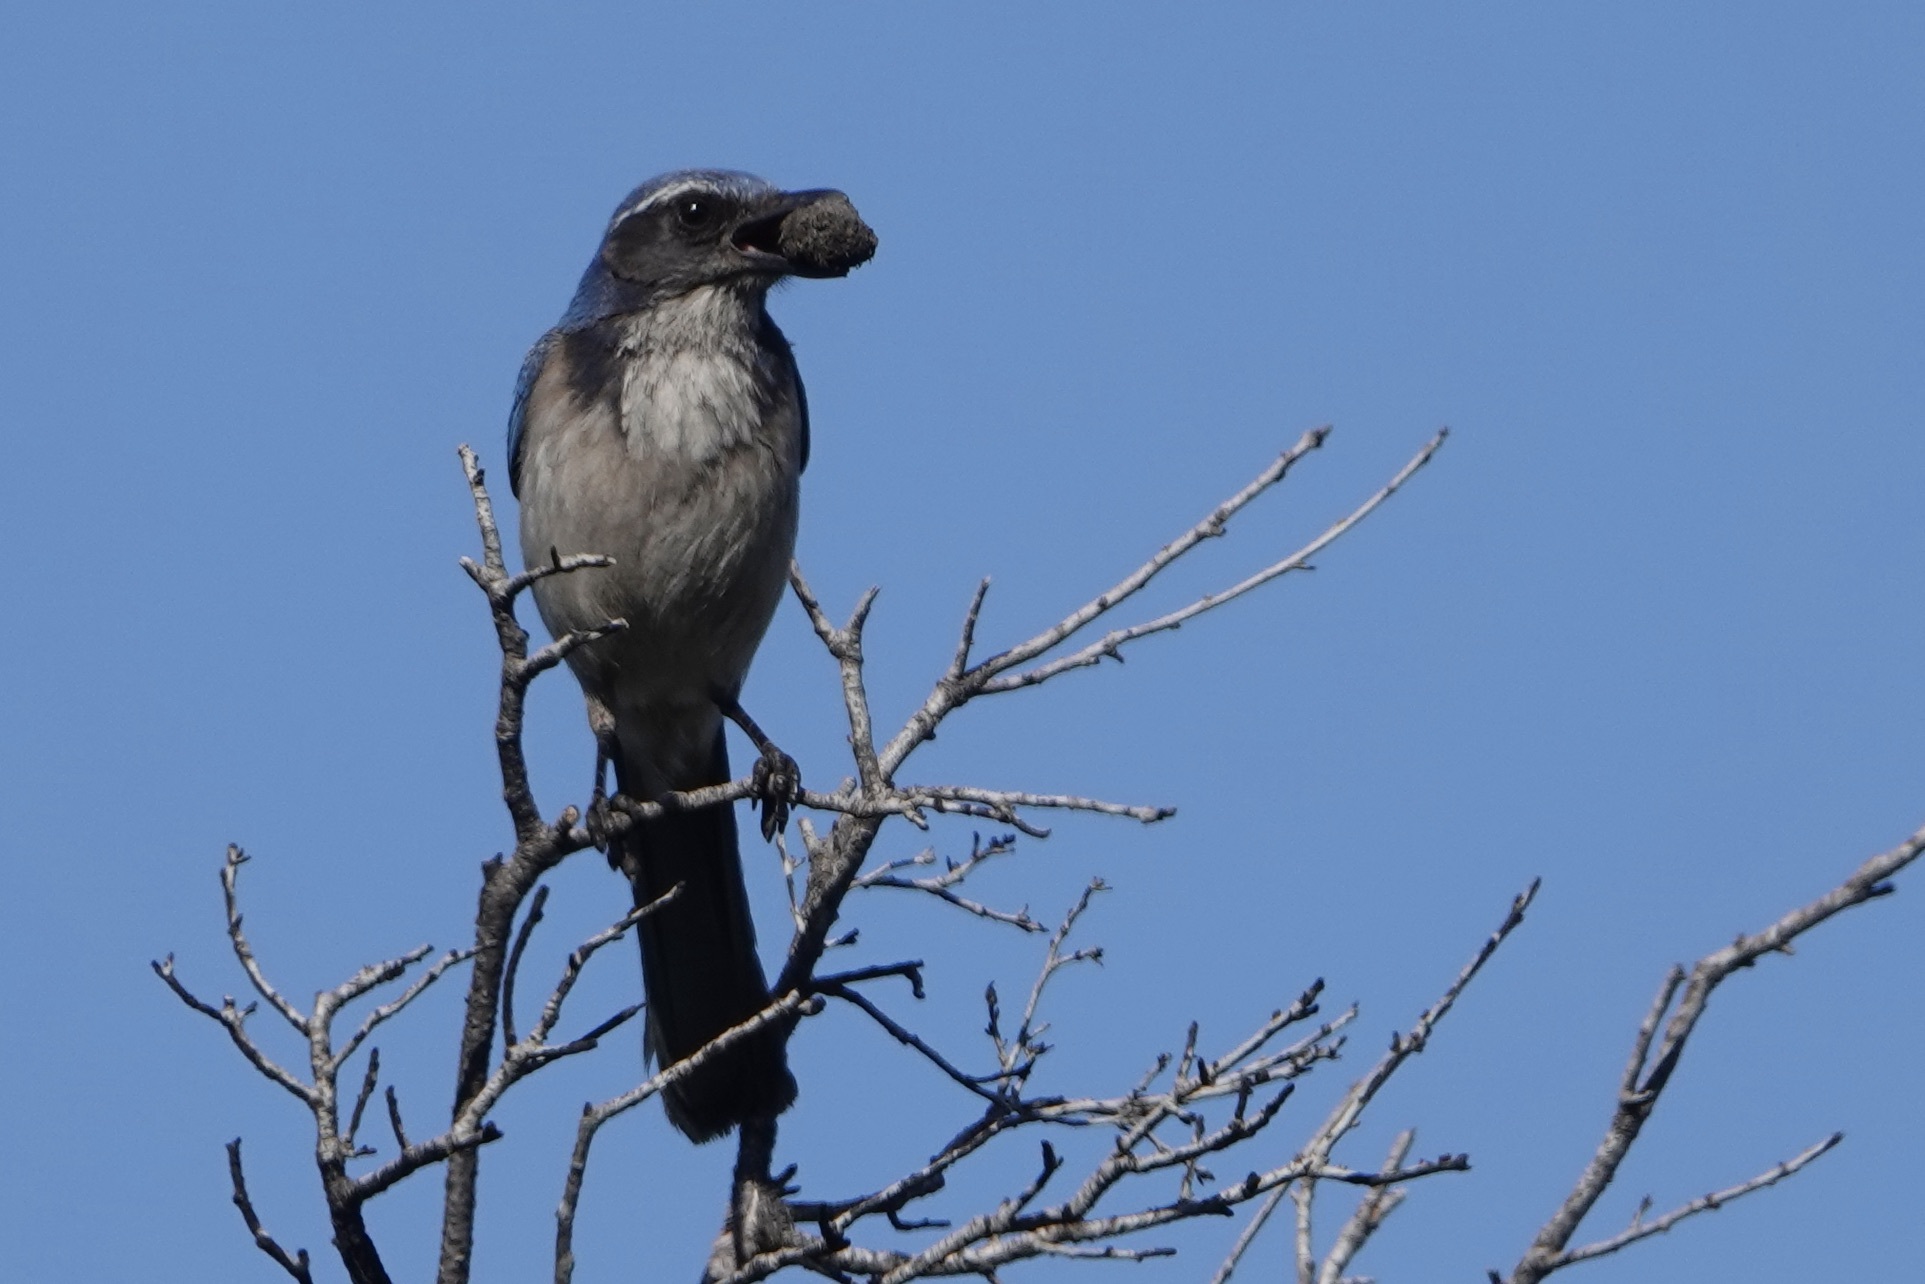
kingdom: Animalia
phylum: Chordata
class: Aves
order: Passeriformes
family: Corvidae
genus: Aphelocoma
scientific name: Aphelocoma californica
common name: California scrub-jay
